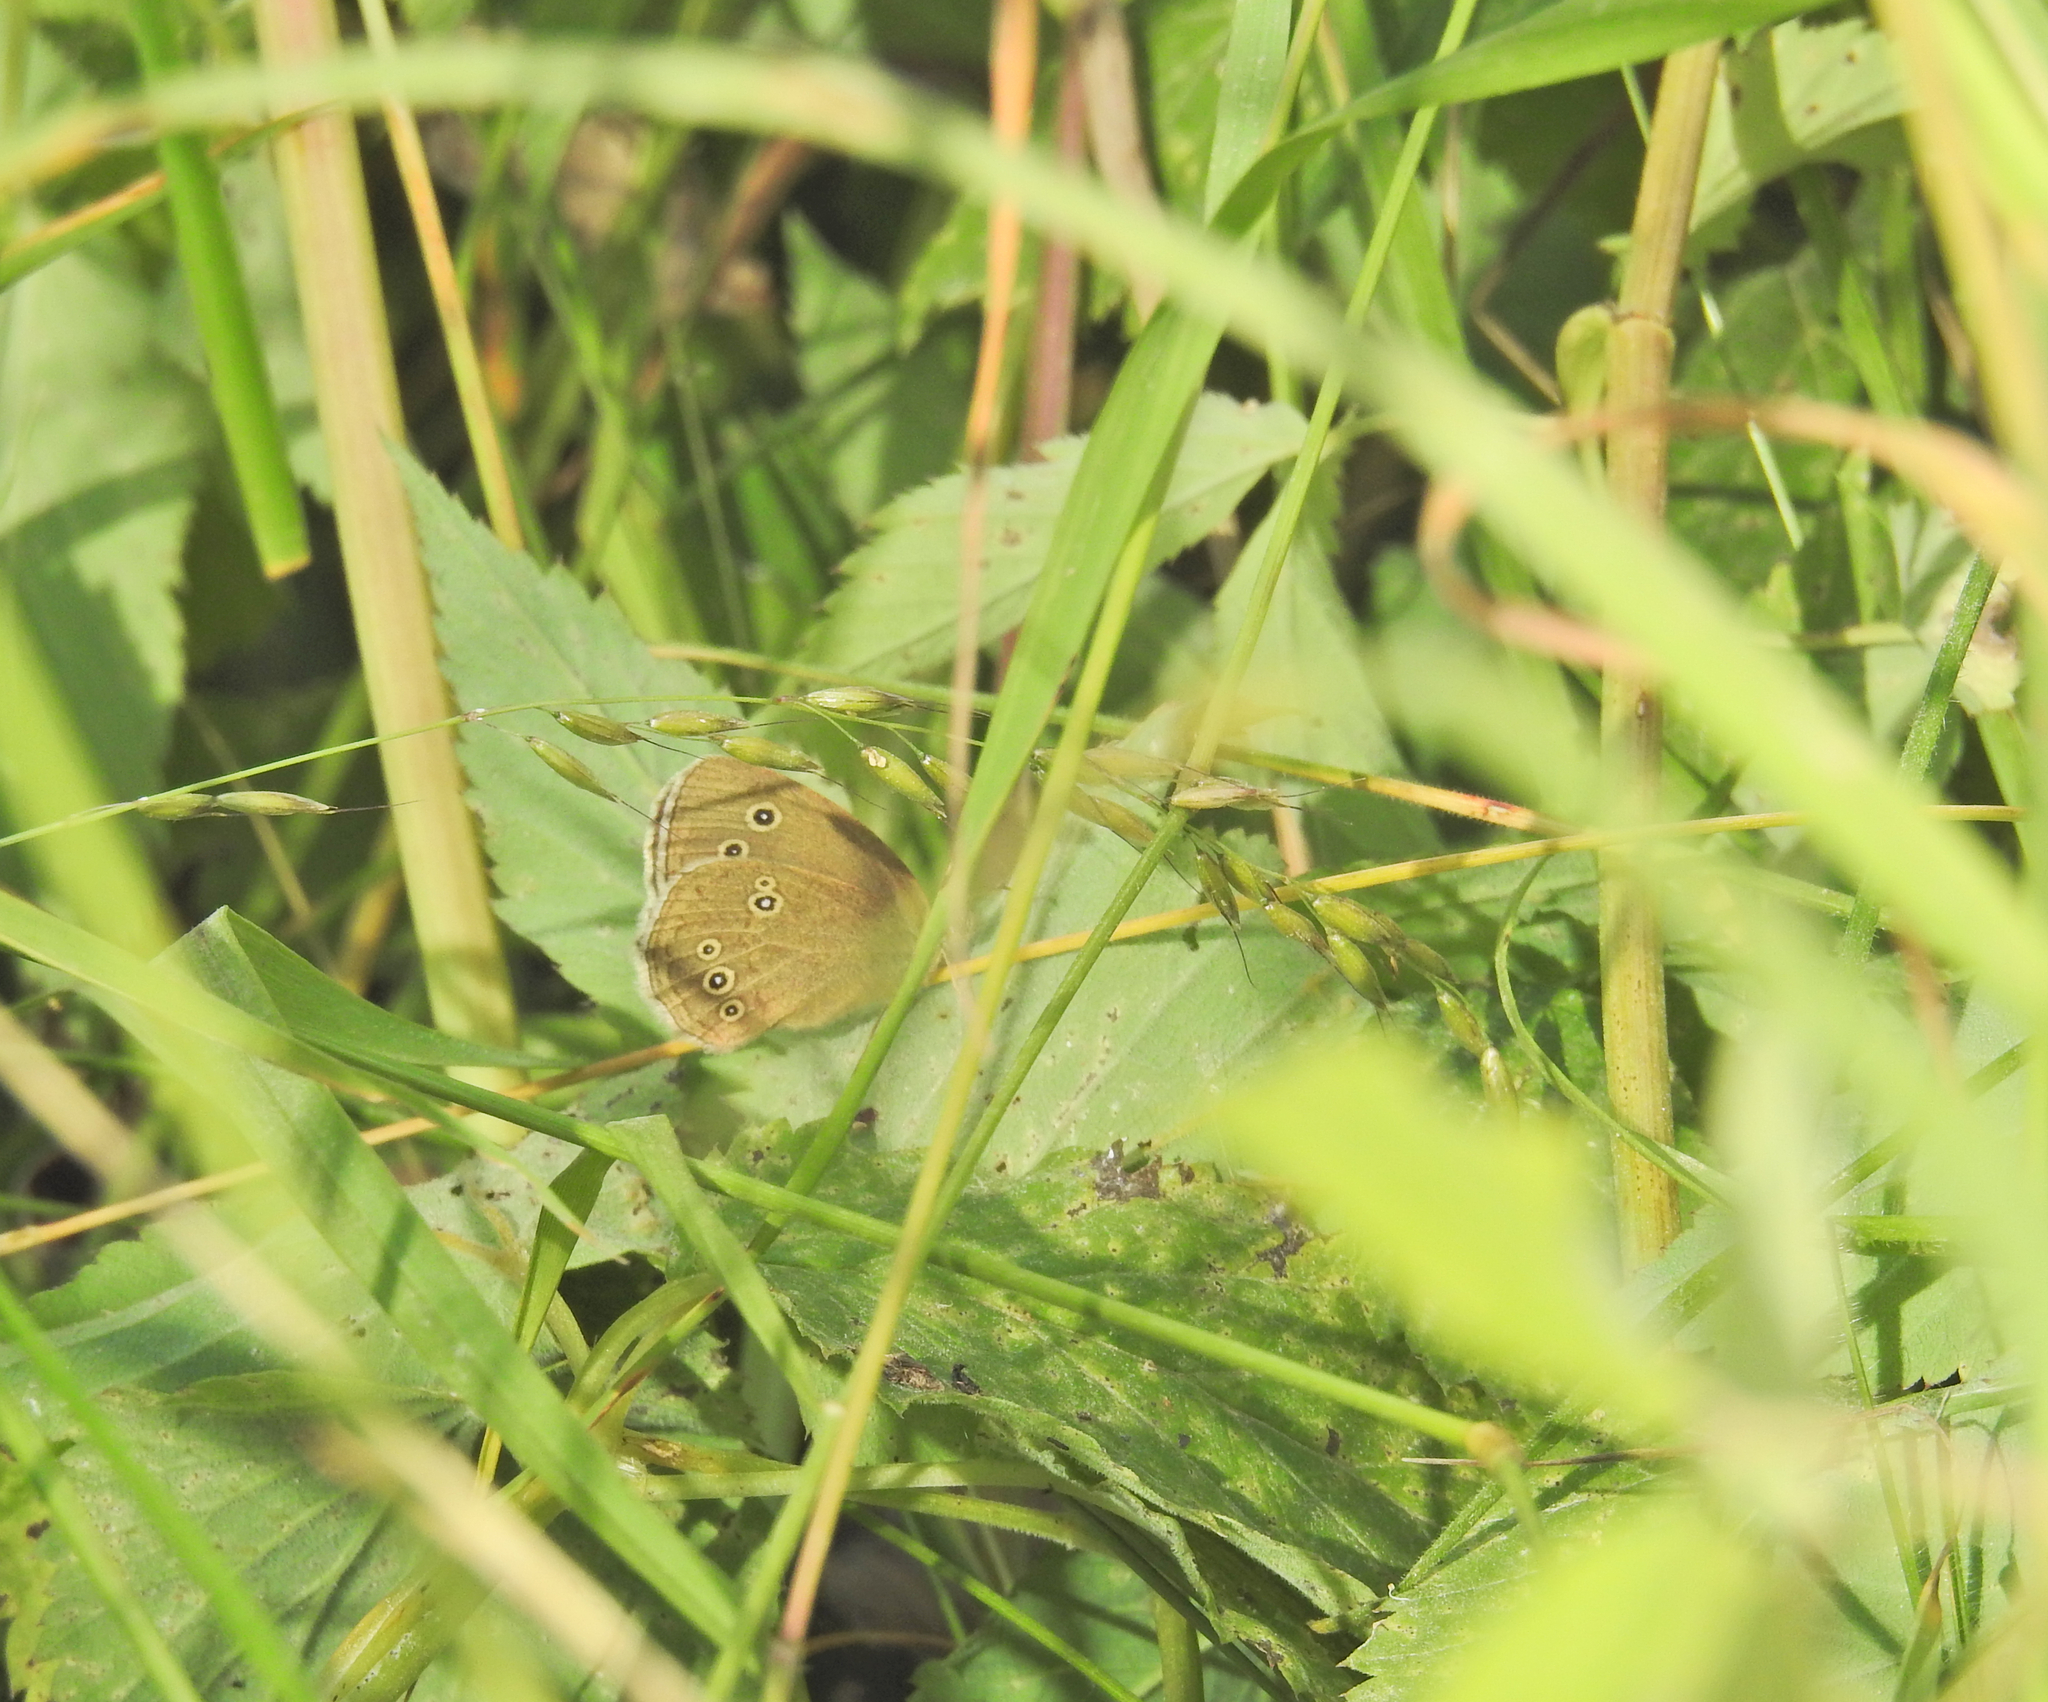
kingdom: Animalia
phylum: Arthropoda
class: Insecta
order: Lepidoptera
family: Nymphalidae
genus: Aphantopus
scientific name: Aphantopus hyperantus
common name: Ringlet
